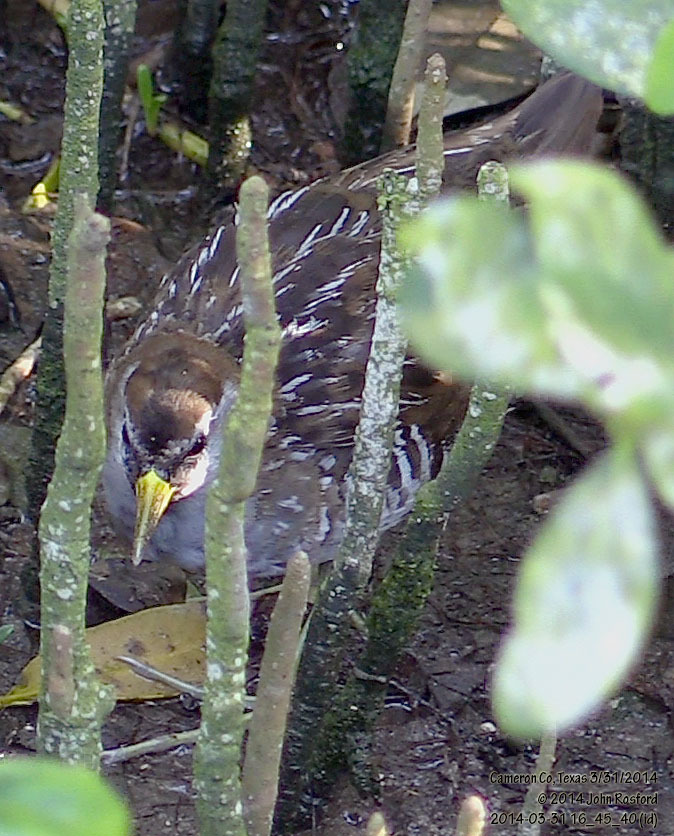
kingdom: Animalia
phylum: Chordata
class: Aves
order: Gruiformes
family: Rallidae
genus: Porzana
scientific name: Porzana carolina
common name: Sora
